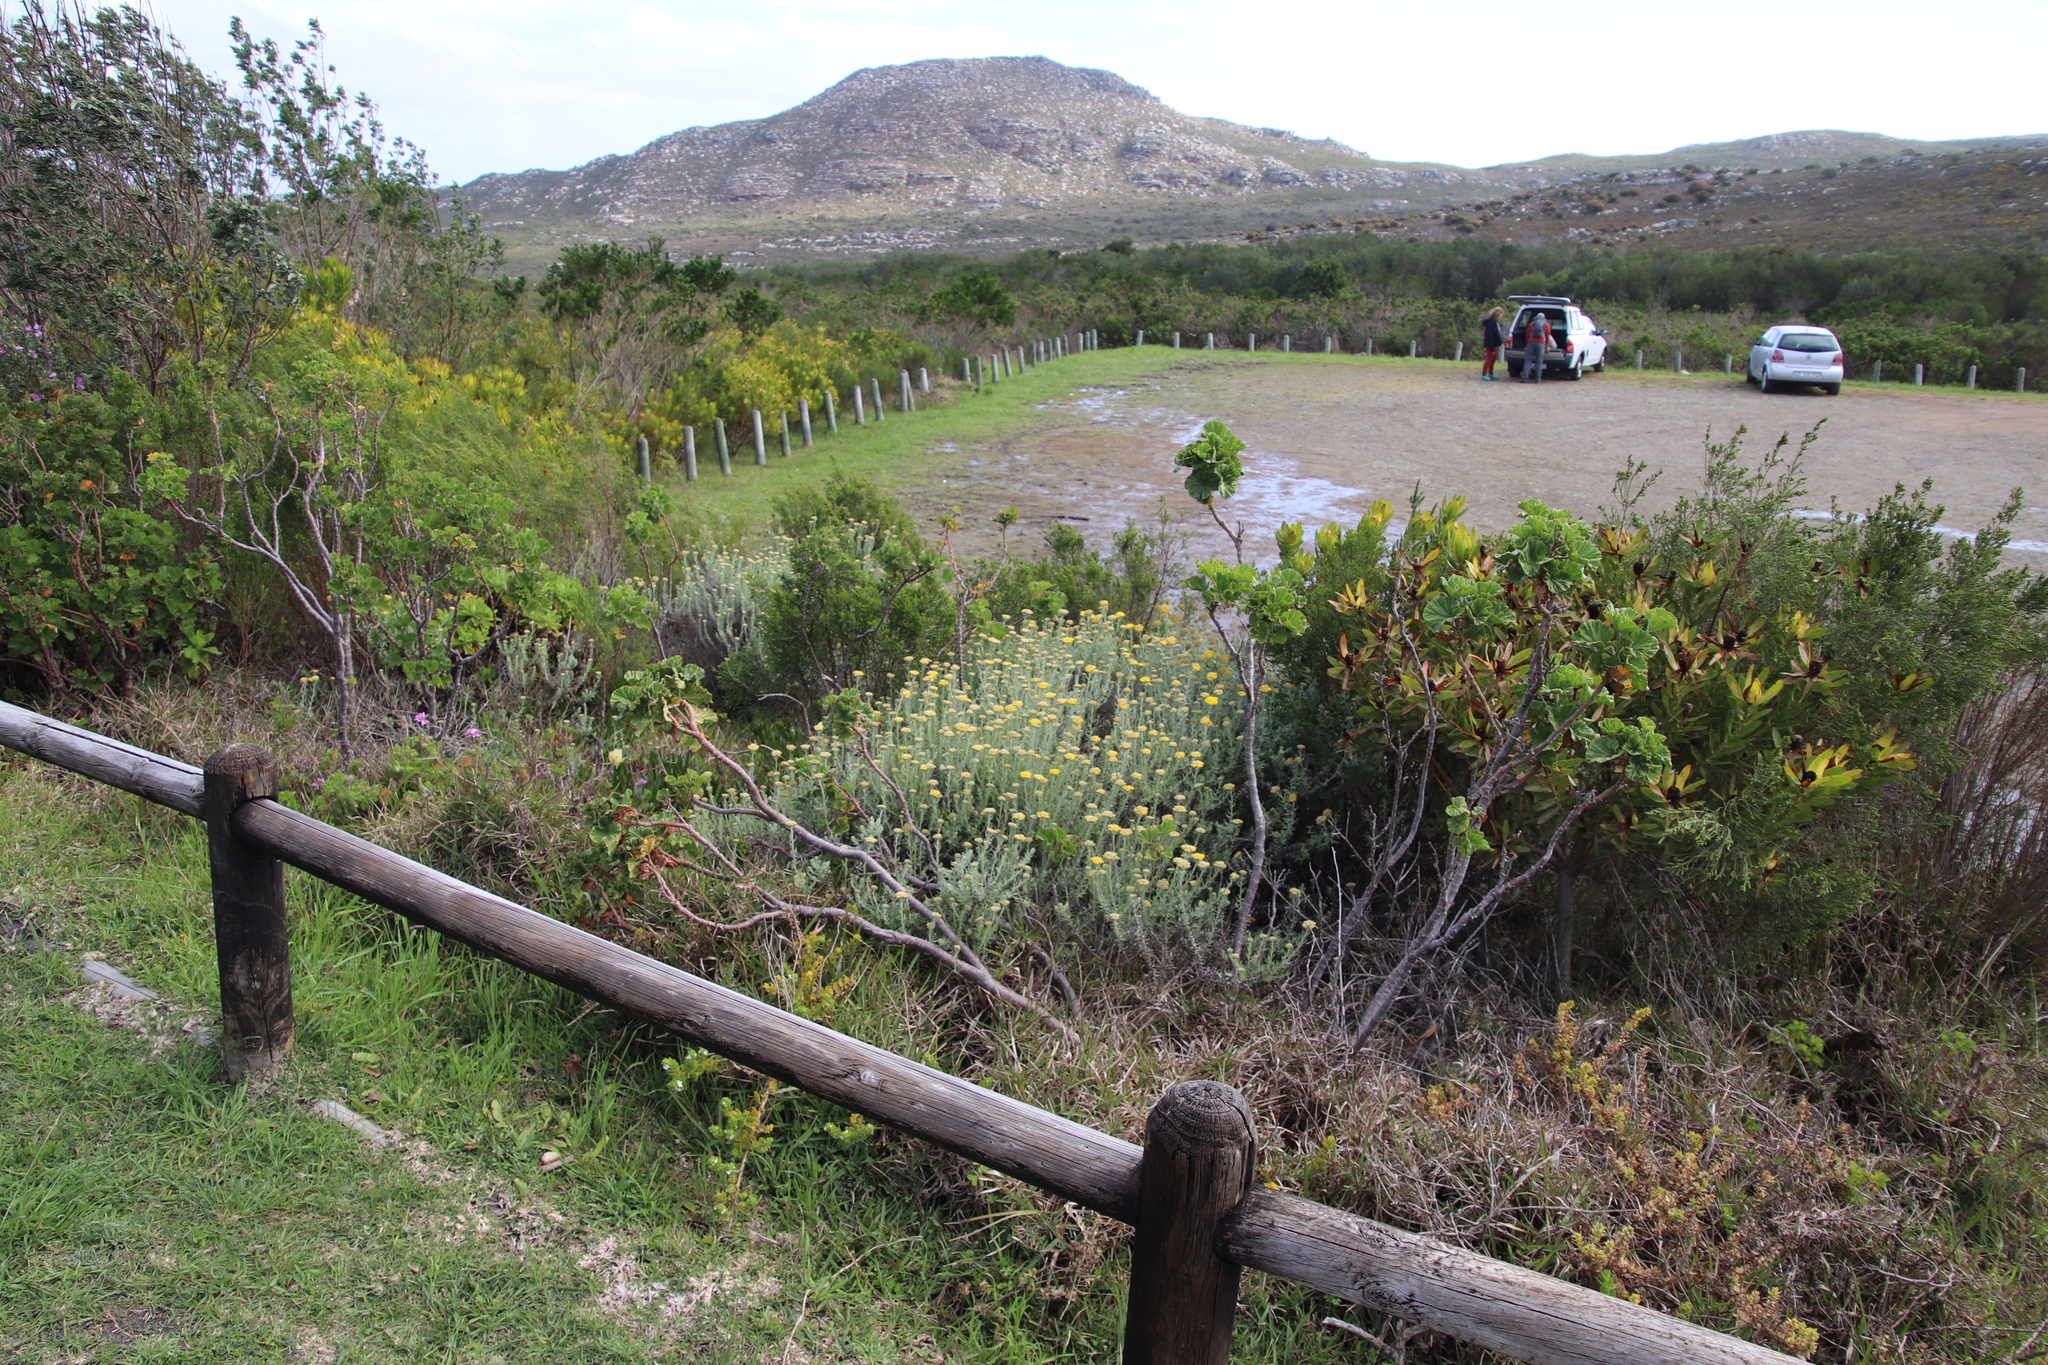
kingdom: Plantae
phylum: Tracheophyta
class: Magnoliopsida
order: Asterales
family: Asteraceae
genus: Helichrysum
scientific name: Helichrysum cymosum
